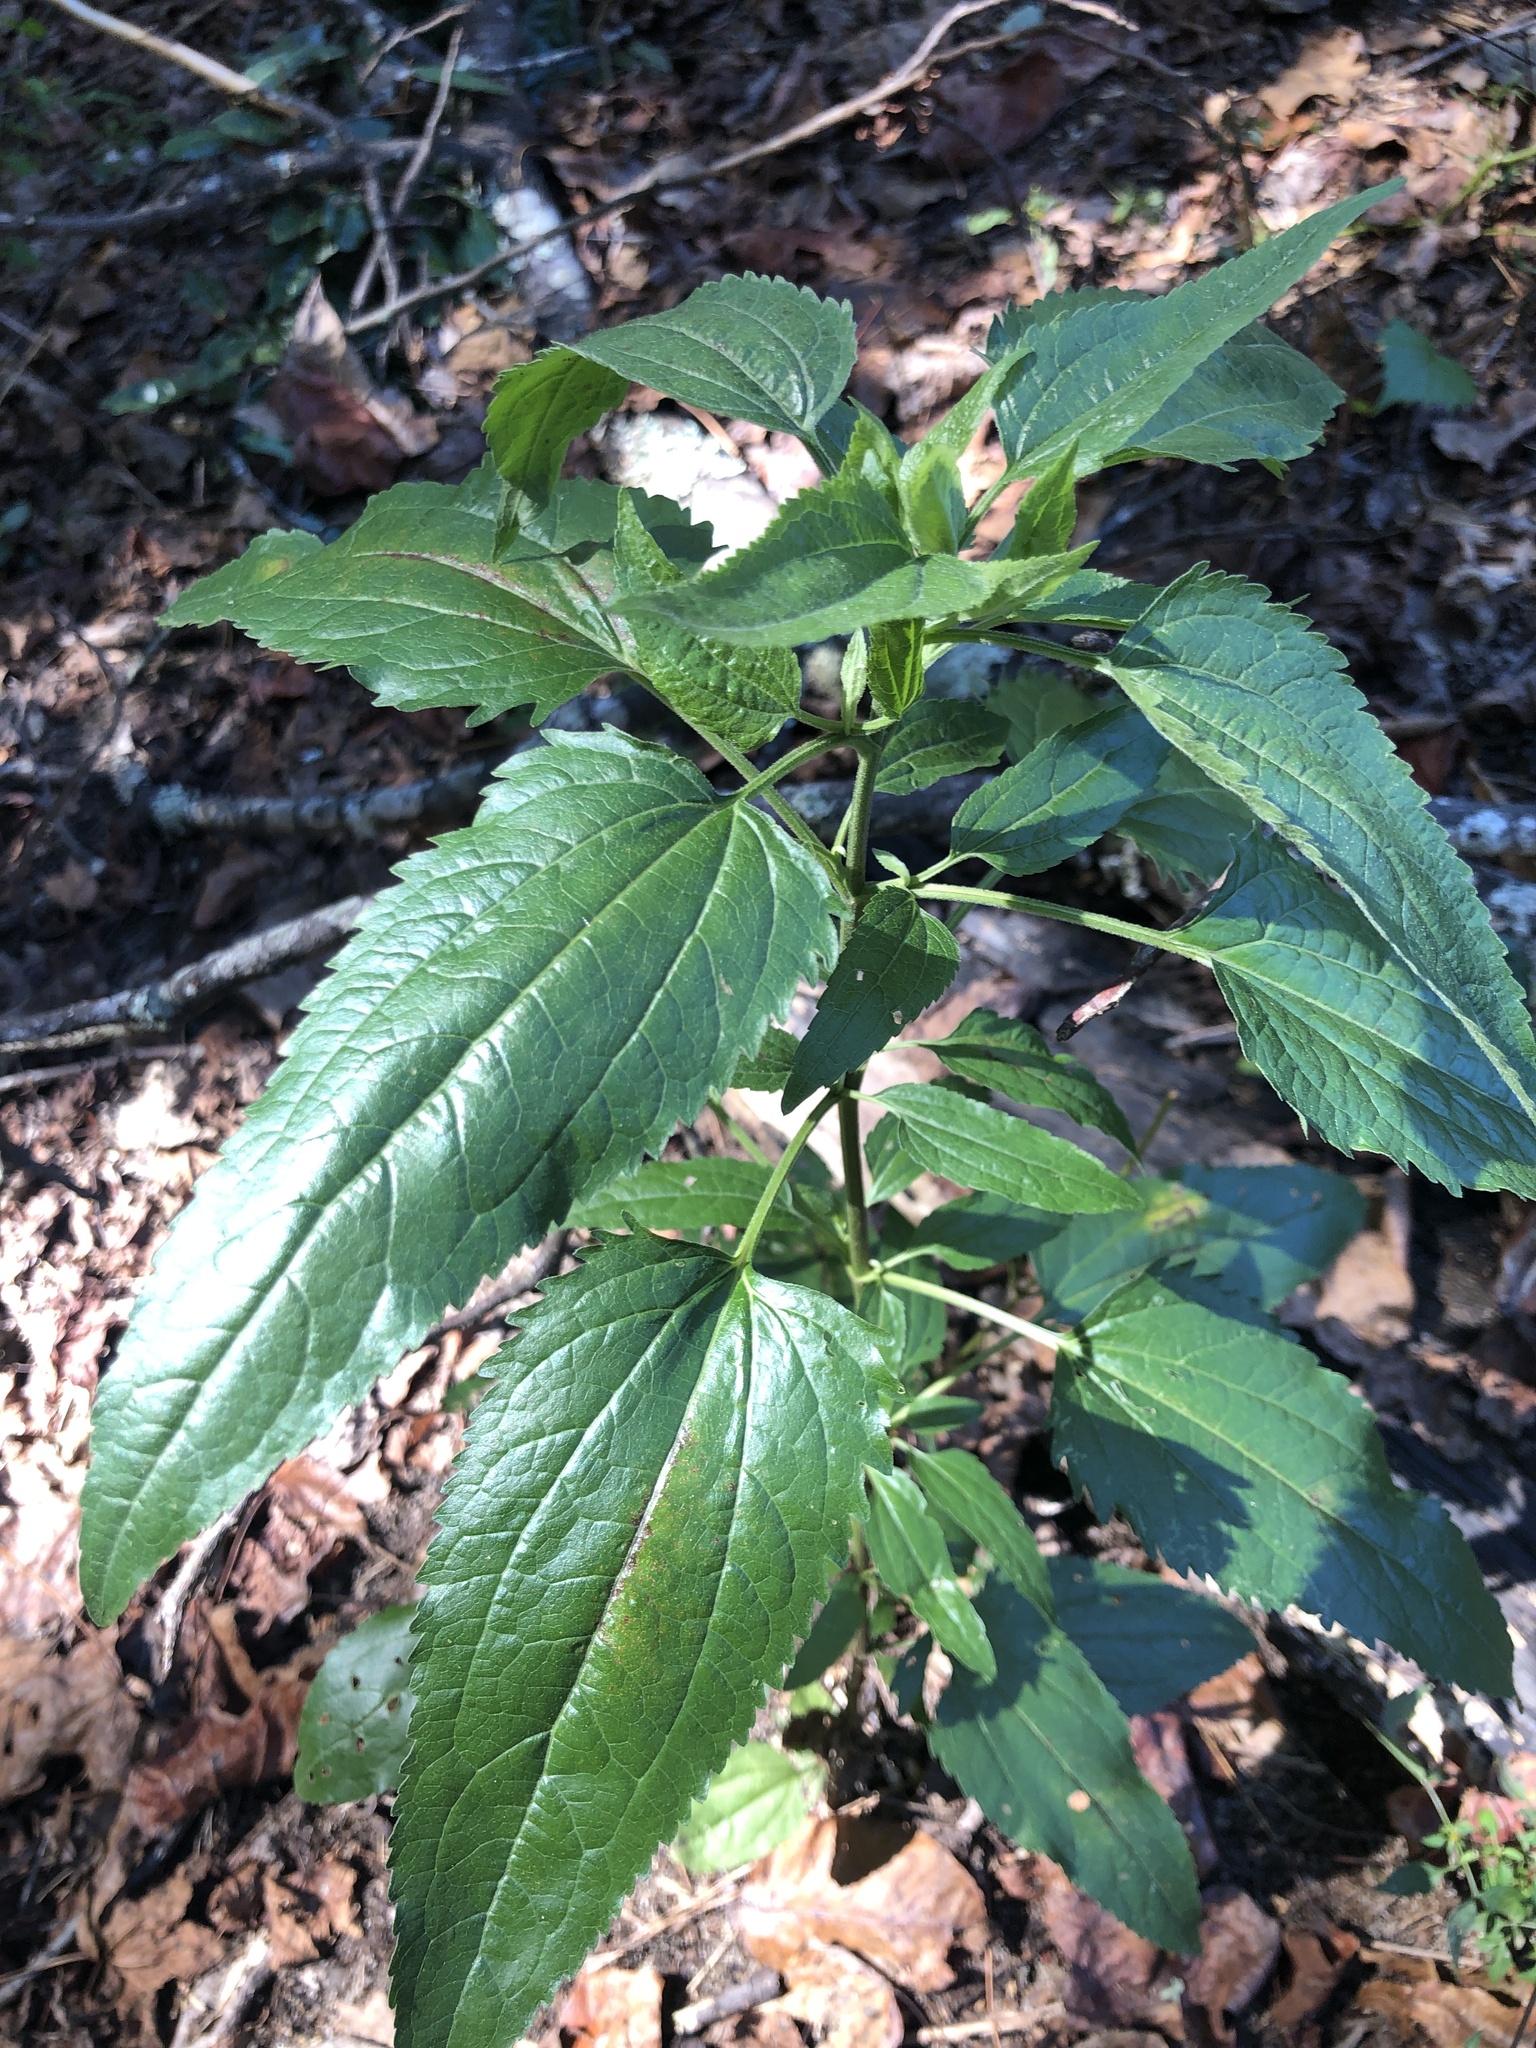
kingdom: Plantae
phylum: Tracheophyta
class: Magnoliopsida
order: Asterales
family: Asteraceae
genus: Eupatorium
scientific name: Eupatorium serotinum
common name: Late boneset
